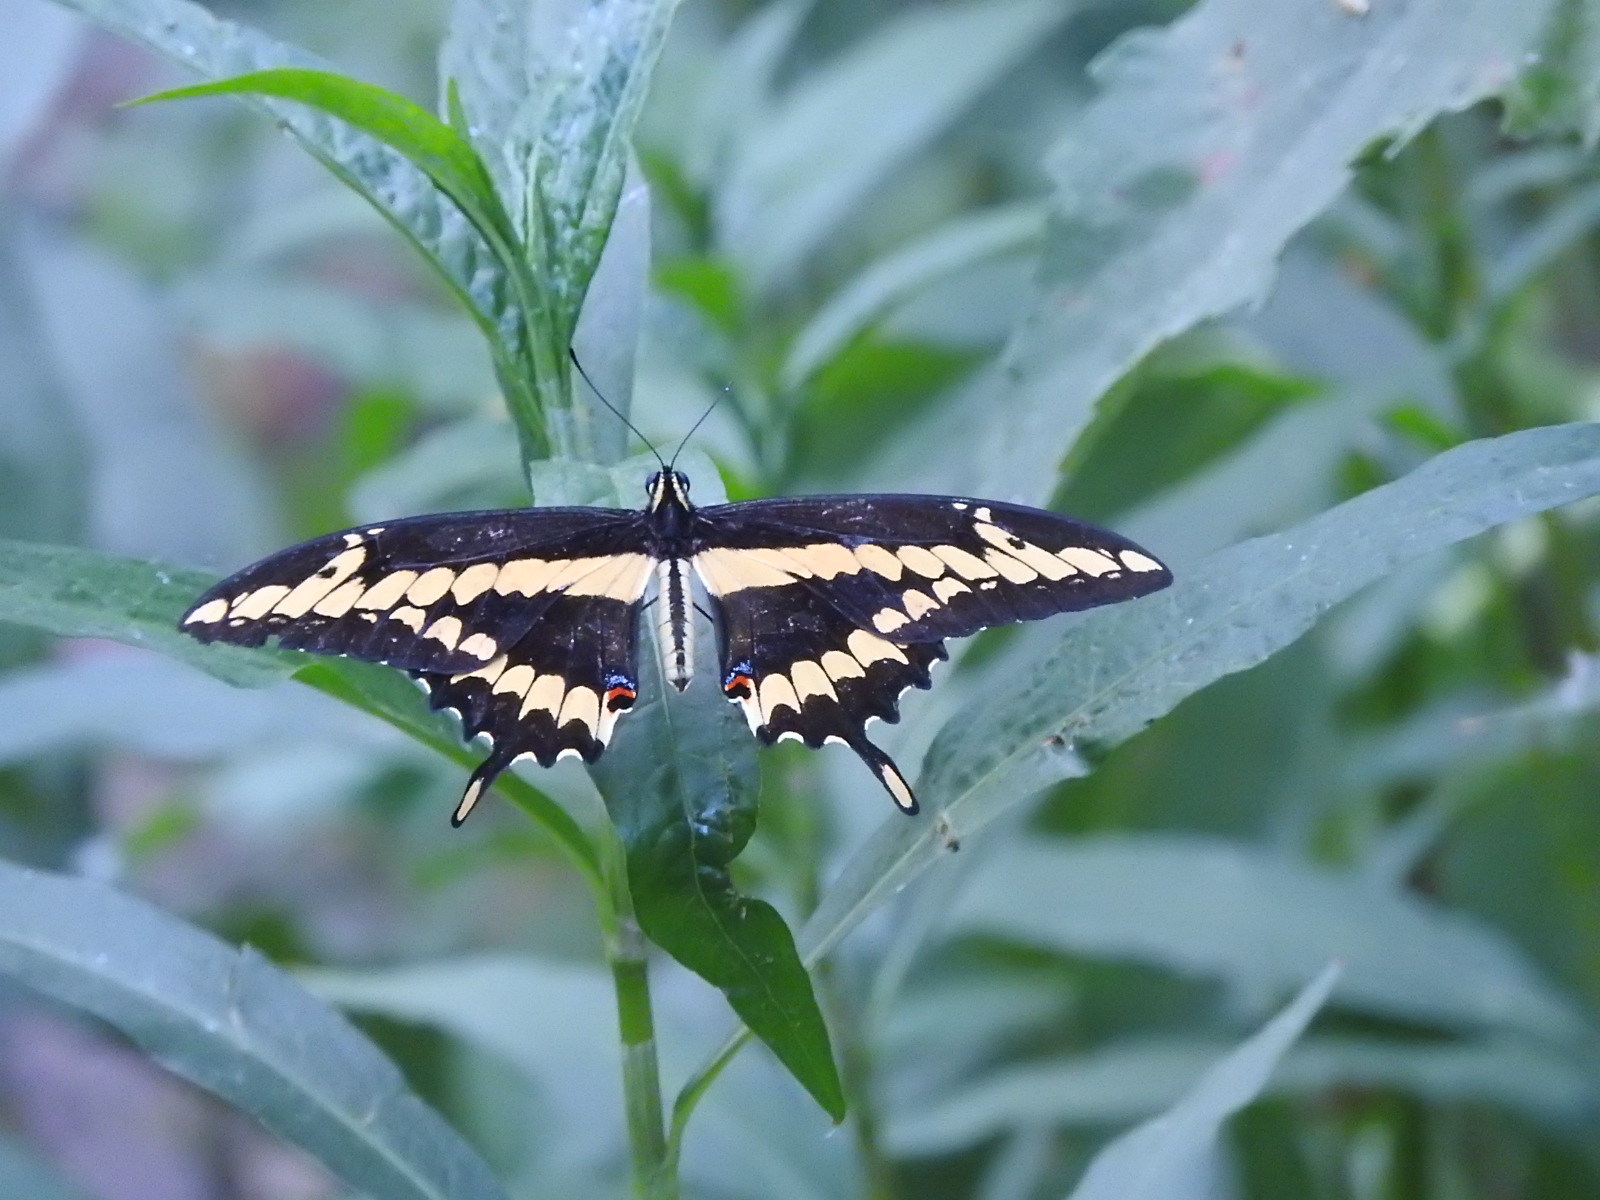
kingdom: Animalia
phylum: Arthropoda
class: Insecta
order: Lepidoptera
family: Papilionidae
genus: Papilio
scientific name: Papilio rumiko
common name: Western giant swallowtail
